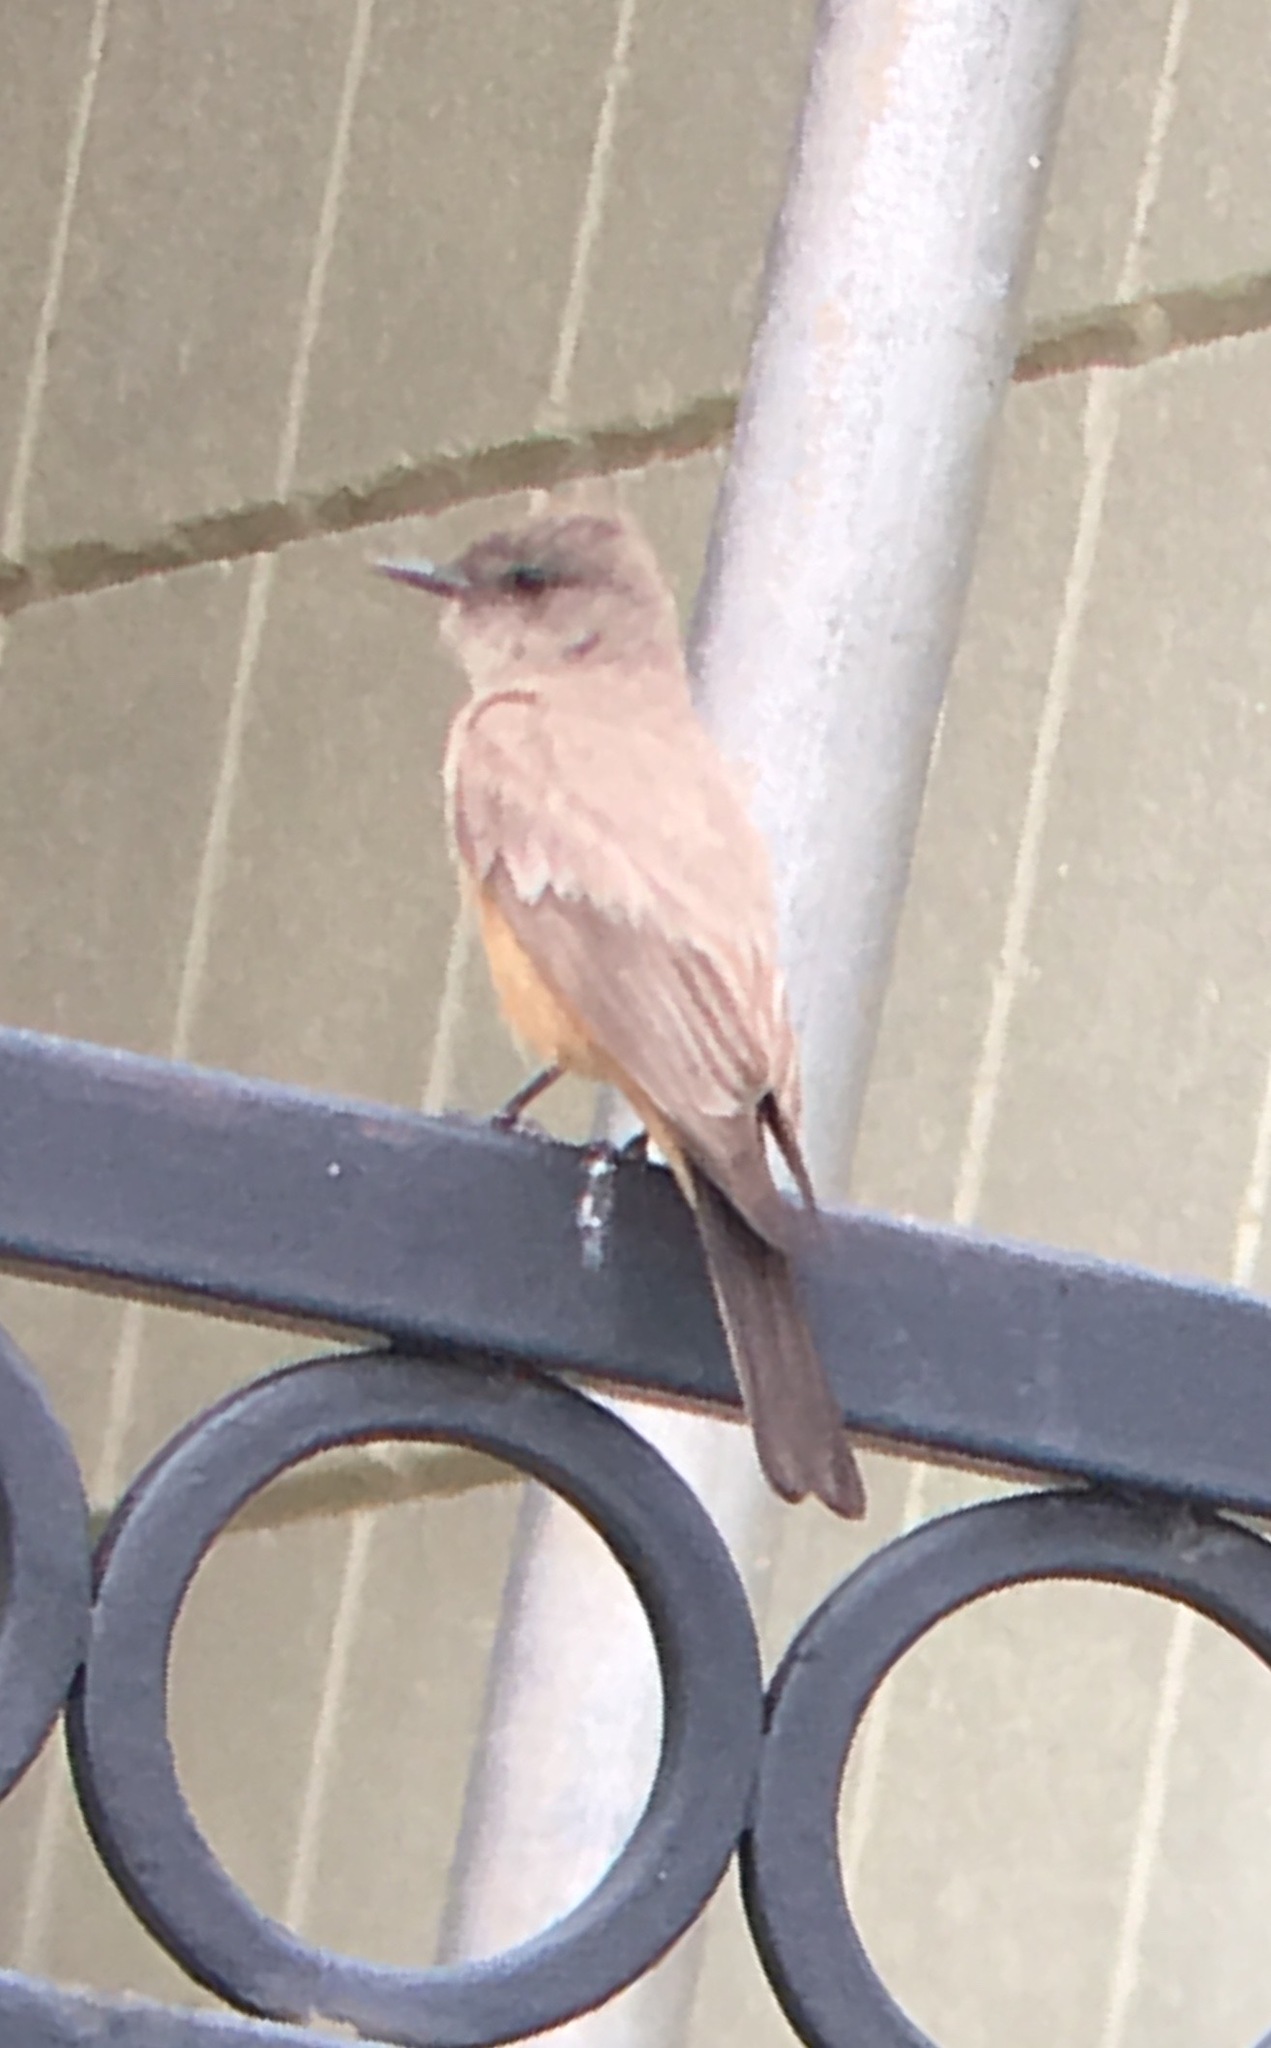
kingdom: Animalia
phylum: Chordata
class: Aves
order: Passeriformes
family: Tyrannidae
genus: Sayornis
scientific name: Sayornis saya
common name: Say's phoebe
